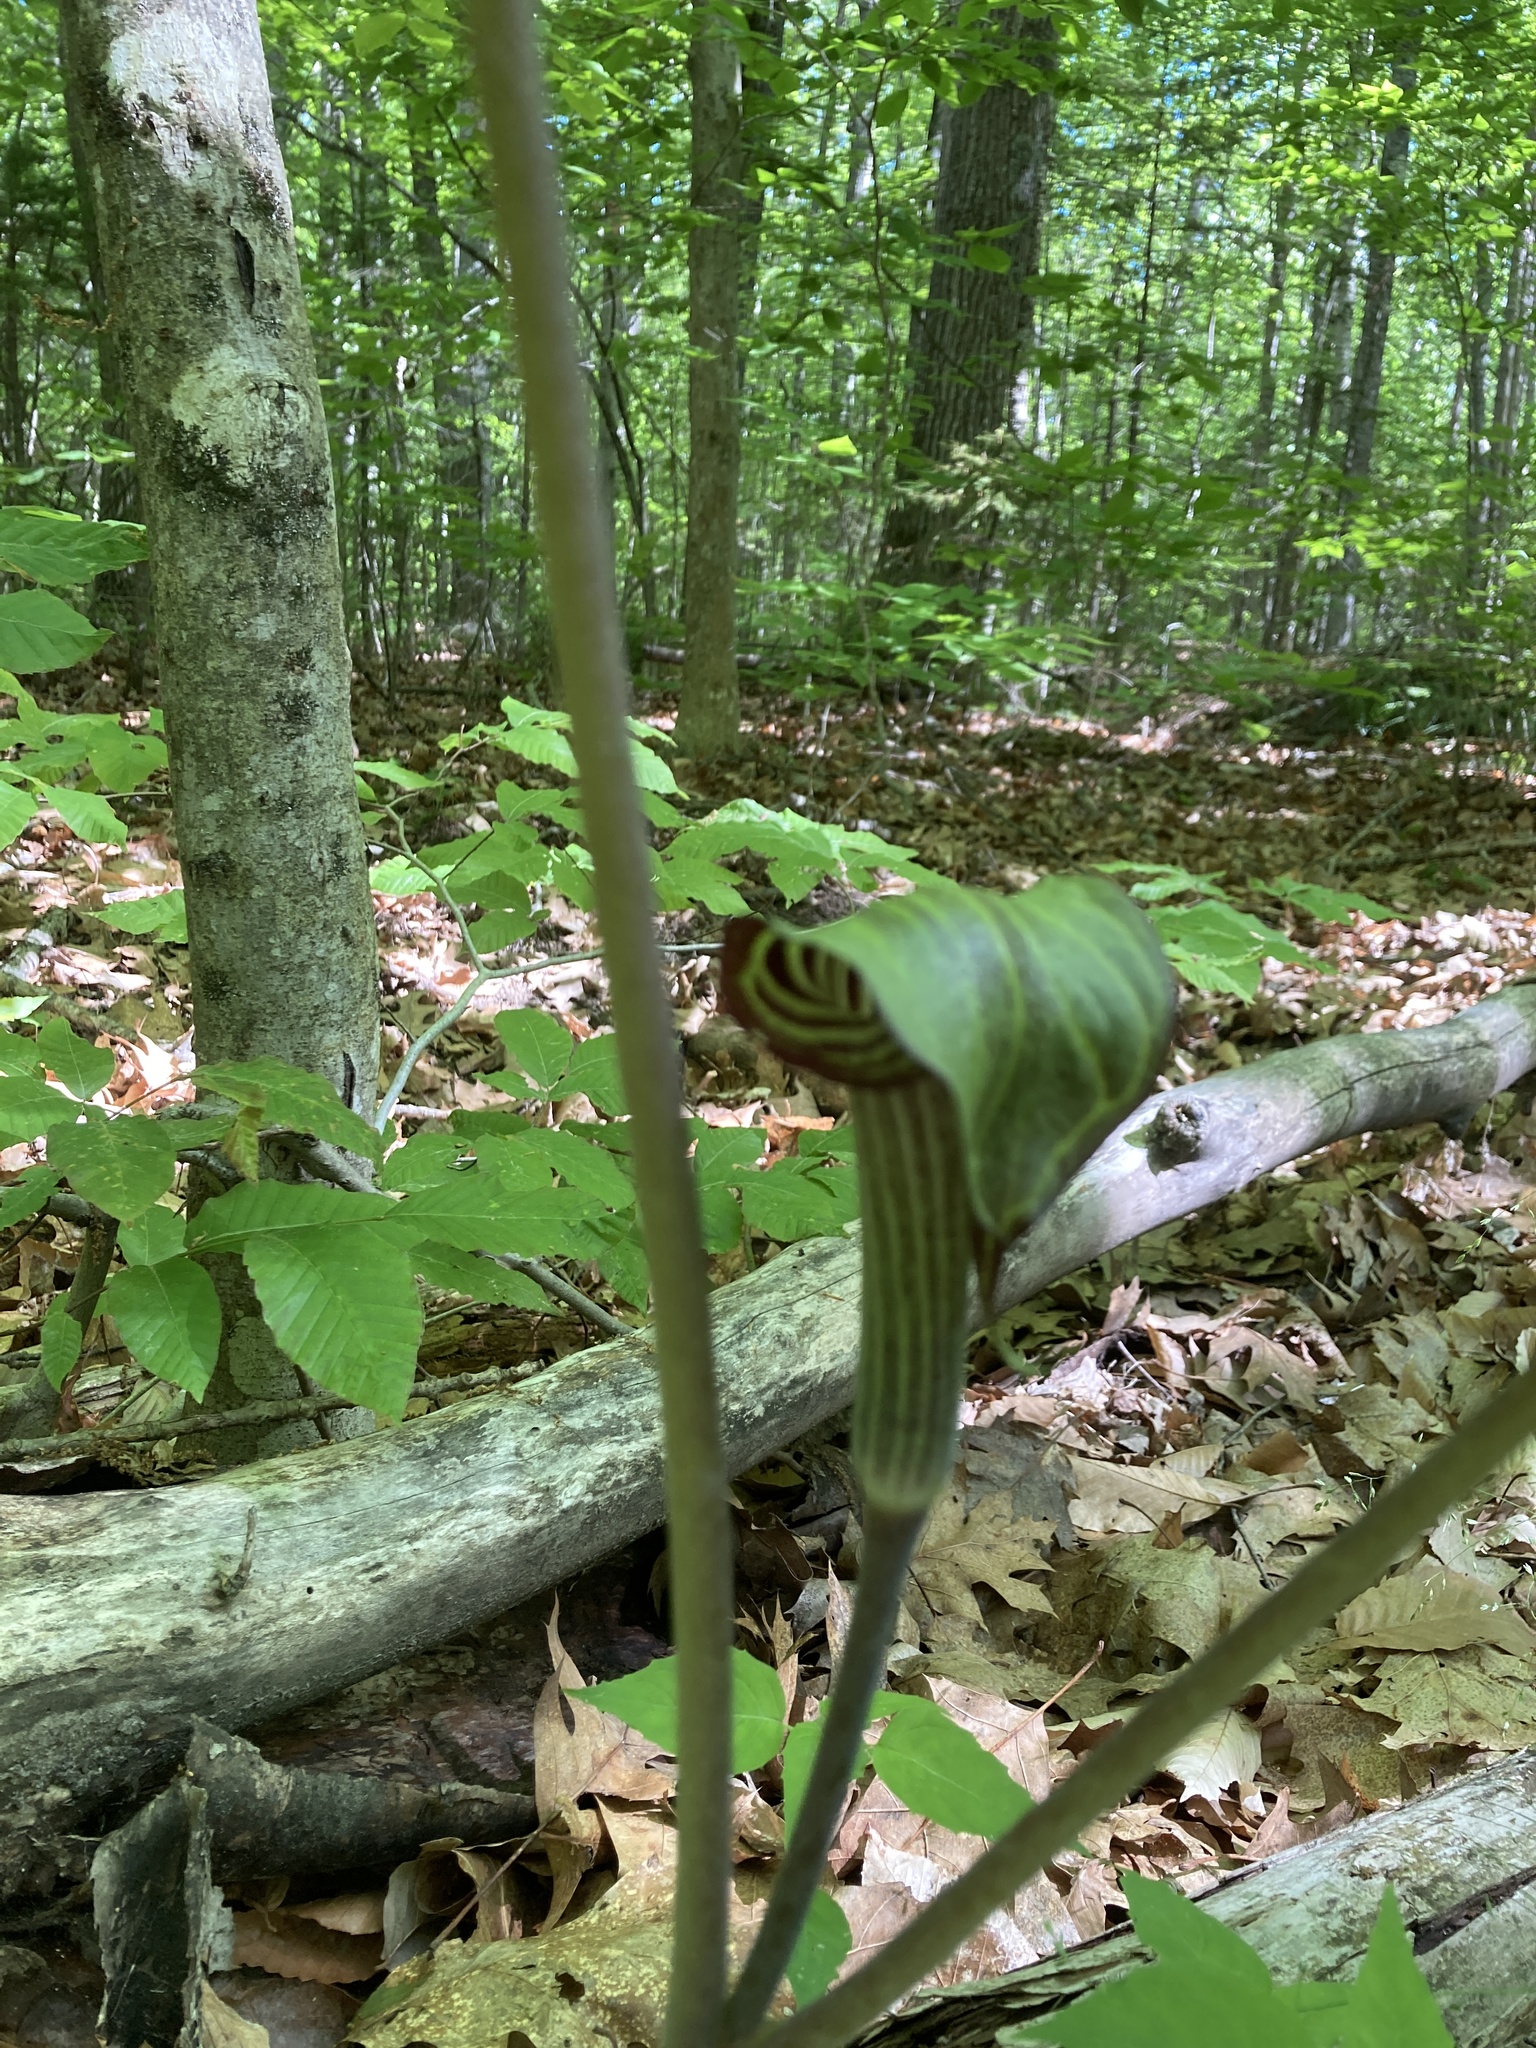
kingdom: Plantae
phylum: Tracheophyta
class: Liliopsida
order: Alismatales
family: Araceae
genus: Arisaema
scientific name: Arisaema triphyllum
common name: Jack-in-the-pulpit
